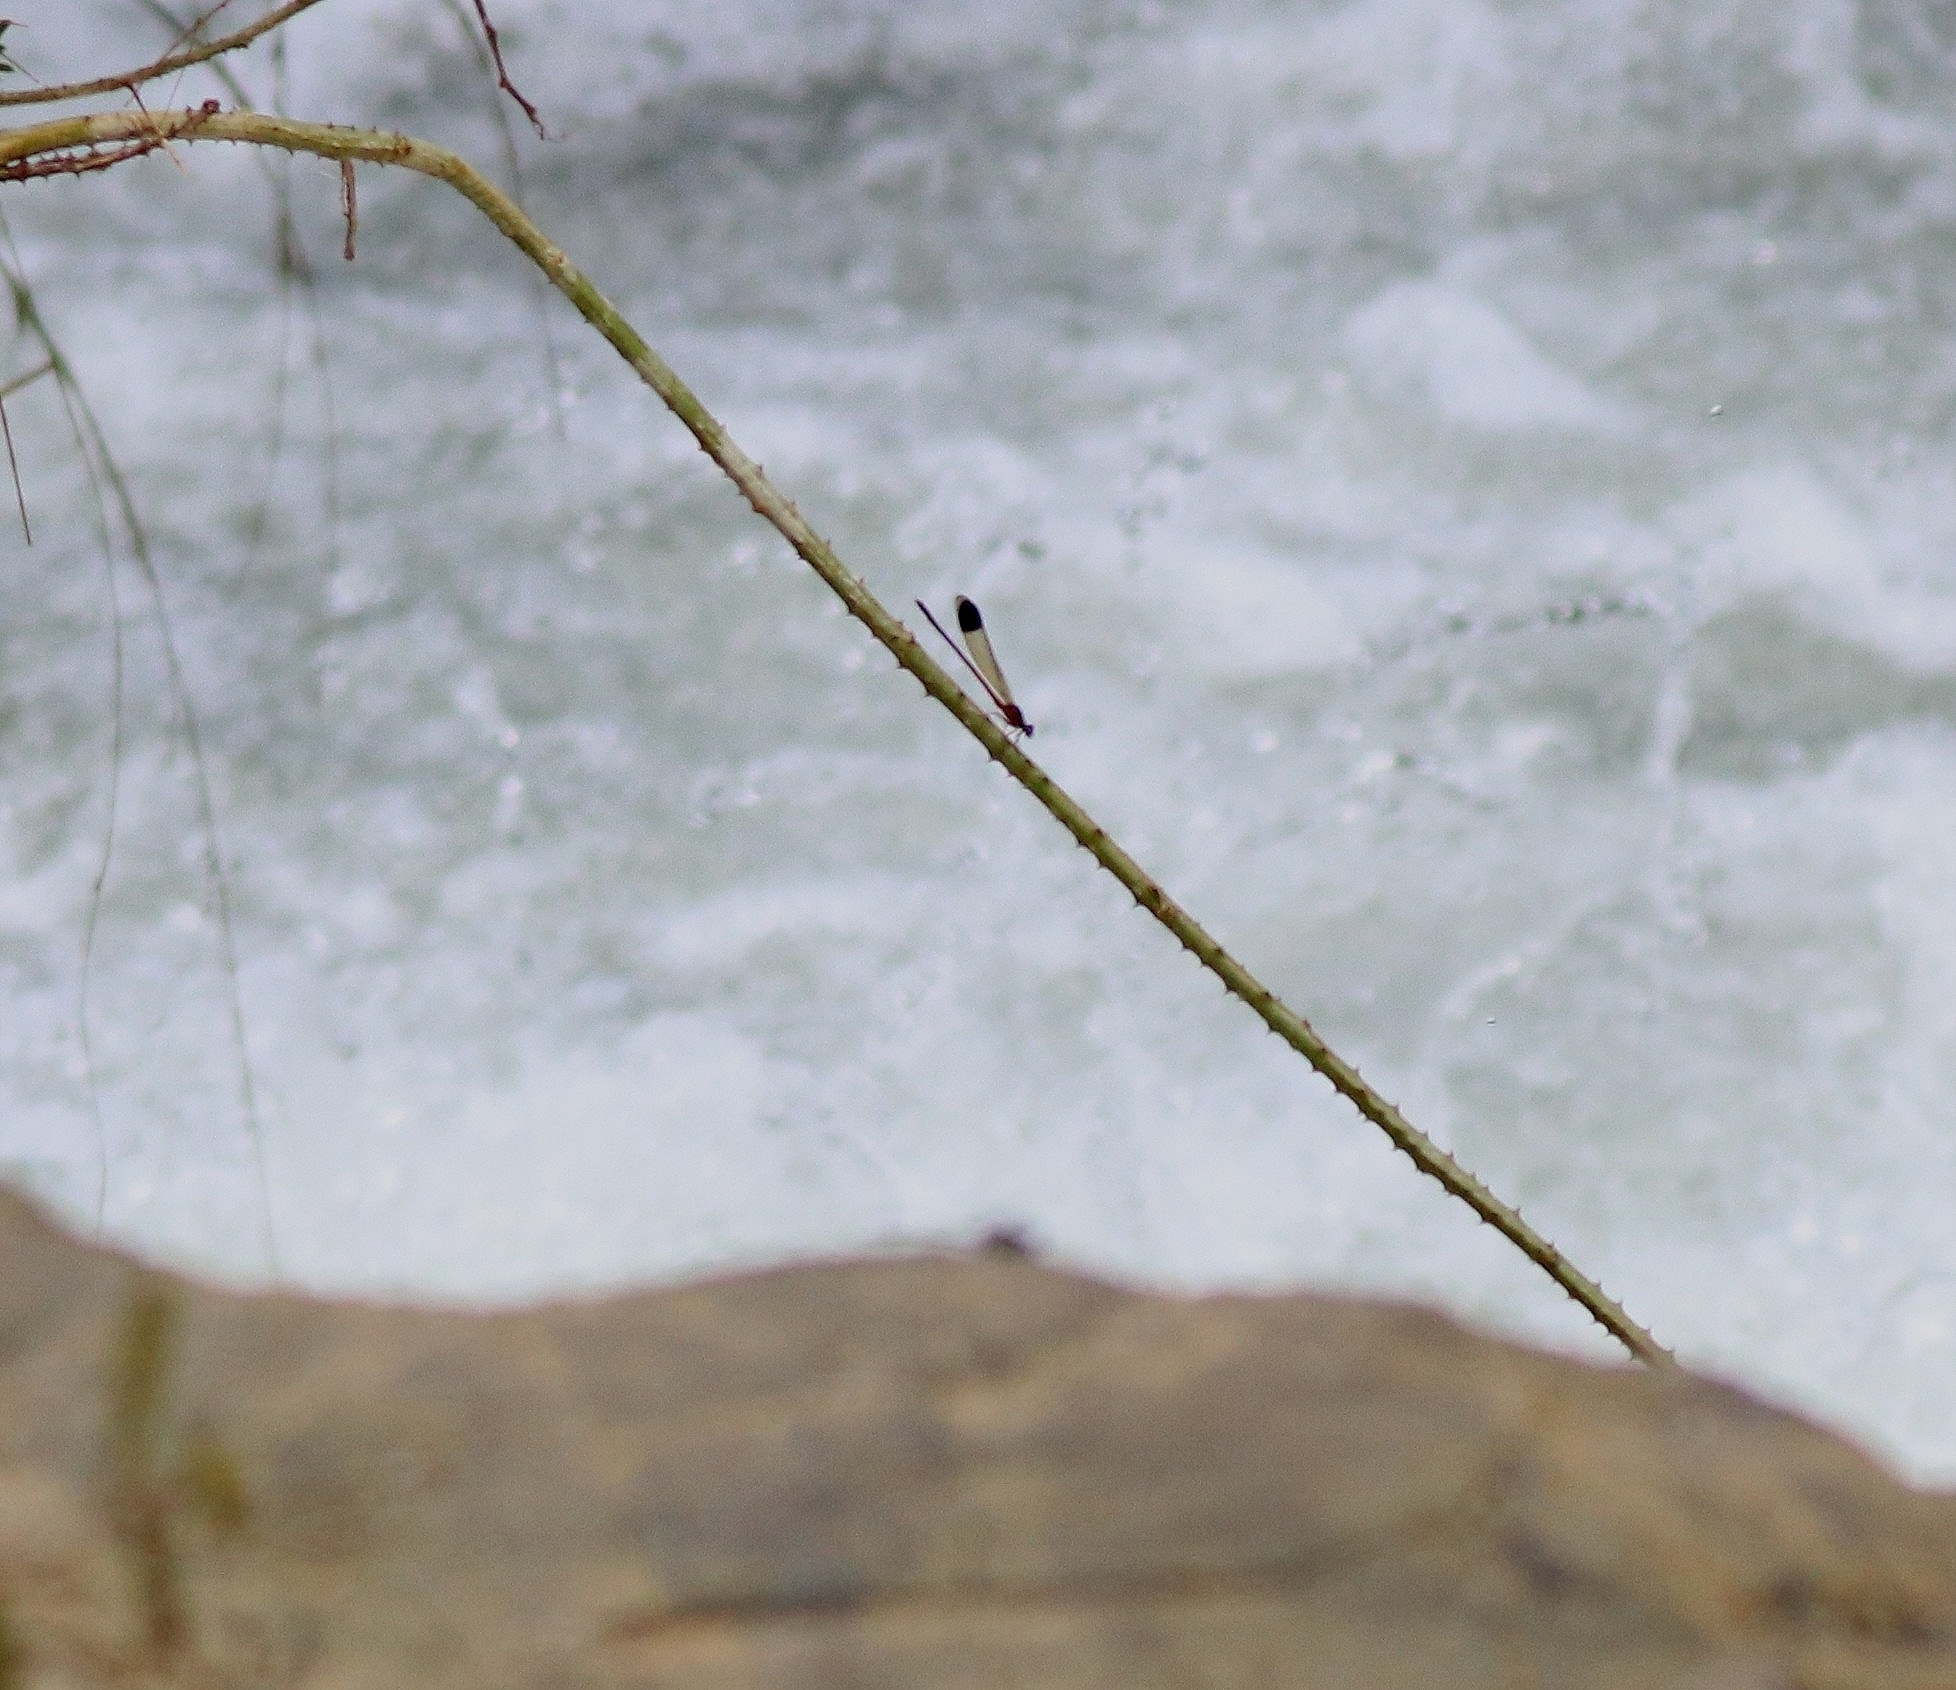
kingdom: Animalia
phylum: Arthropoda
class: Insecta
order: Odonata
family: Euphaeidae
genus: Euphaea
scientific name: Euphaea fraseri
